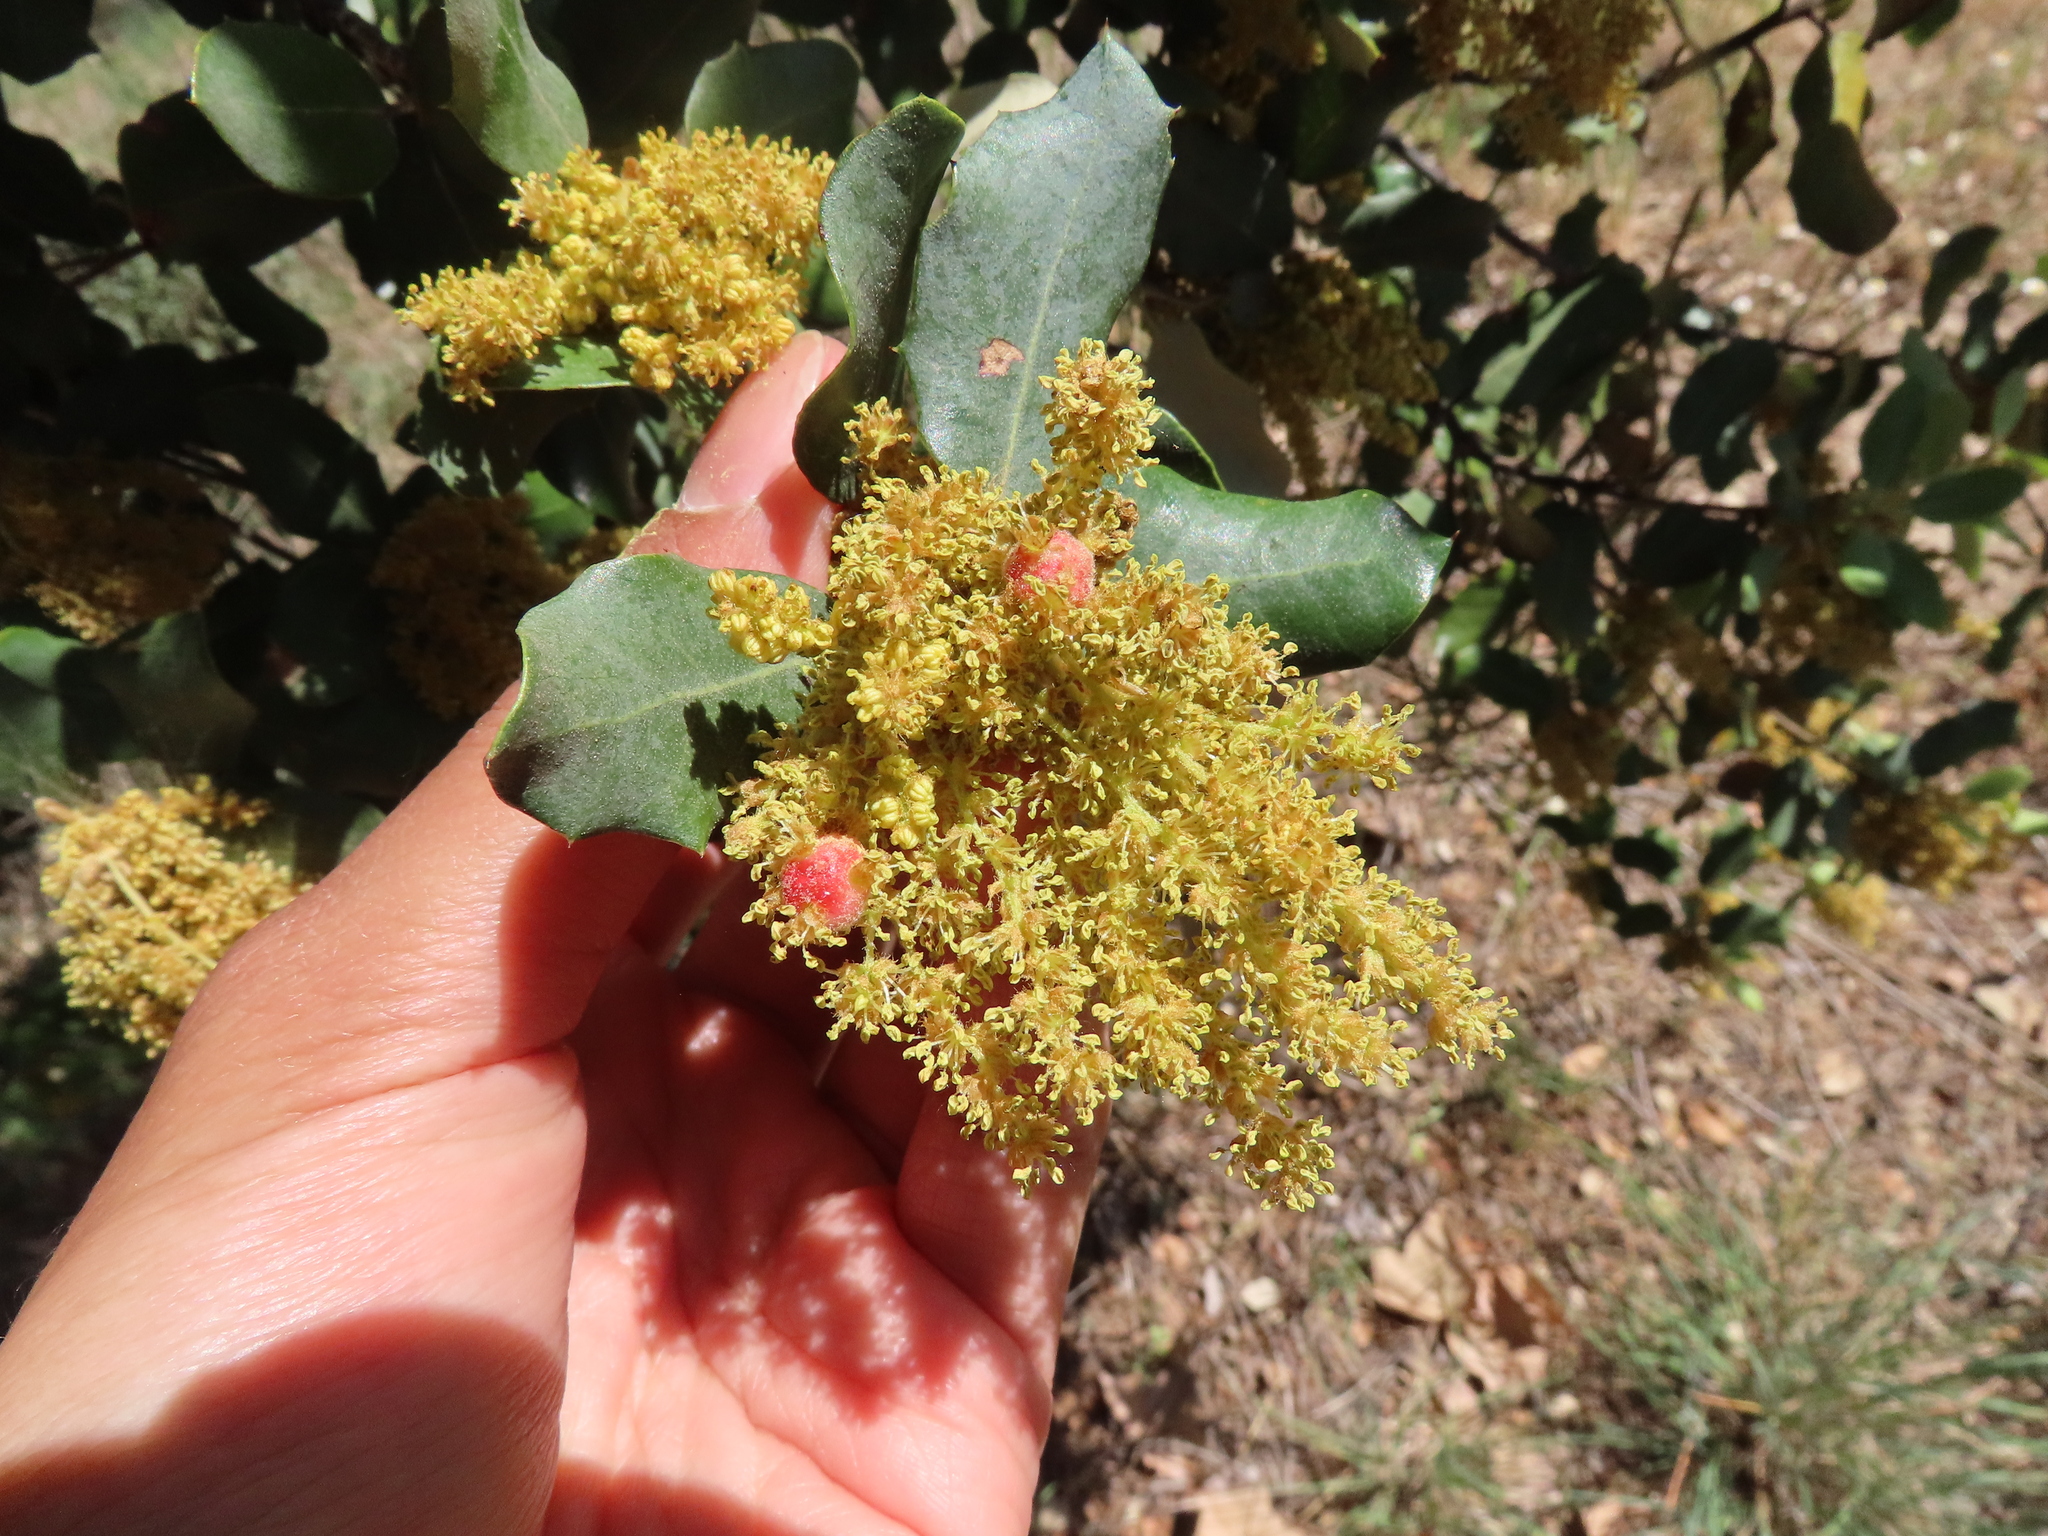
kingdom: Animalia
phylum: Arthropoda
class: Insecta
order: Hymenoptera
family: Cynipidae
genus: Plagiotrochus
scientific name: Plagiotrochus quercusilicis
